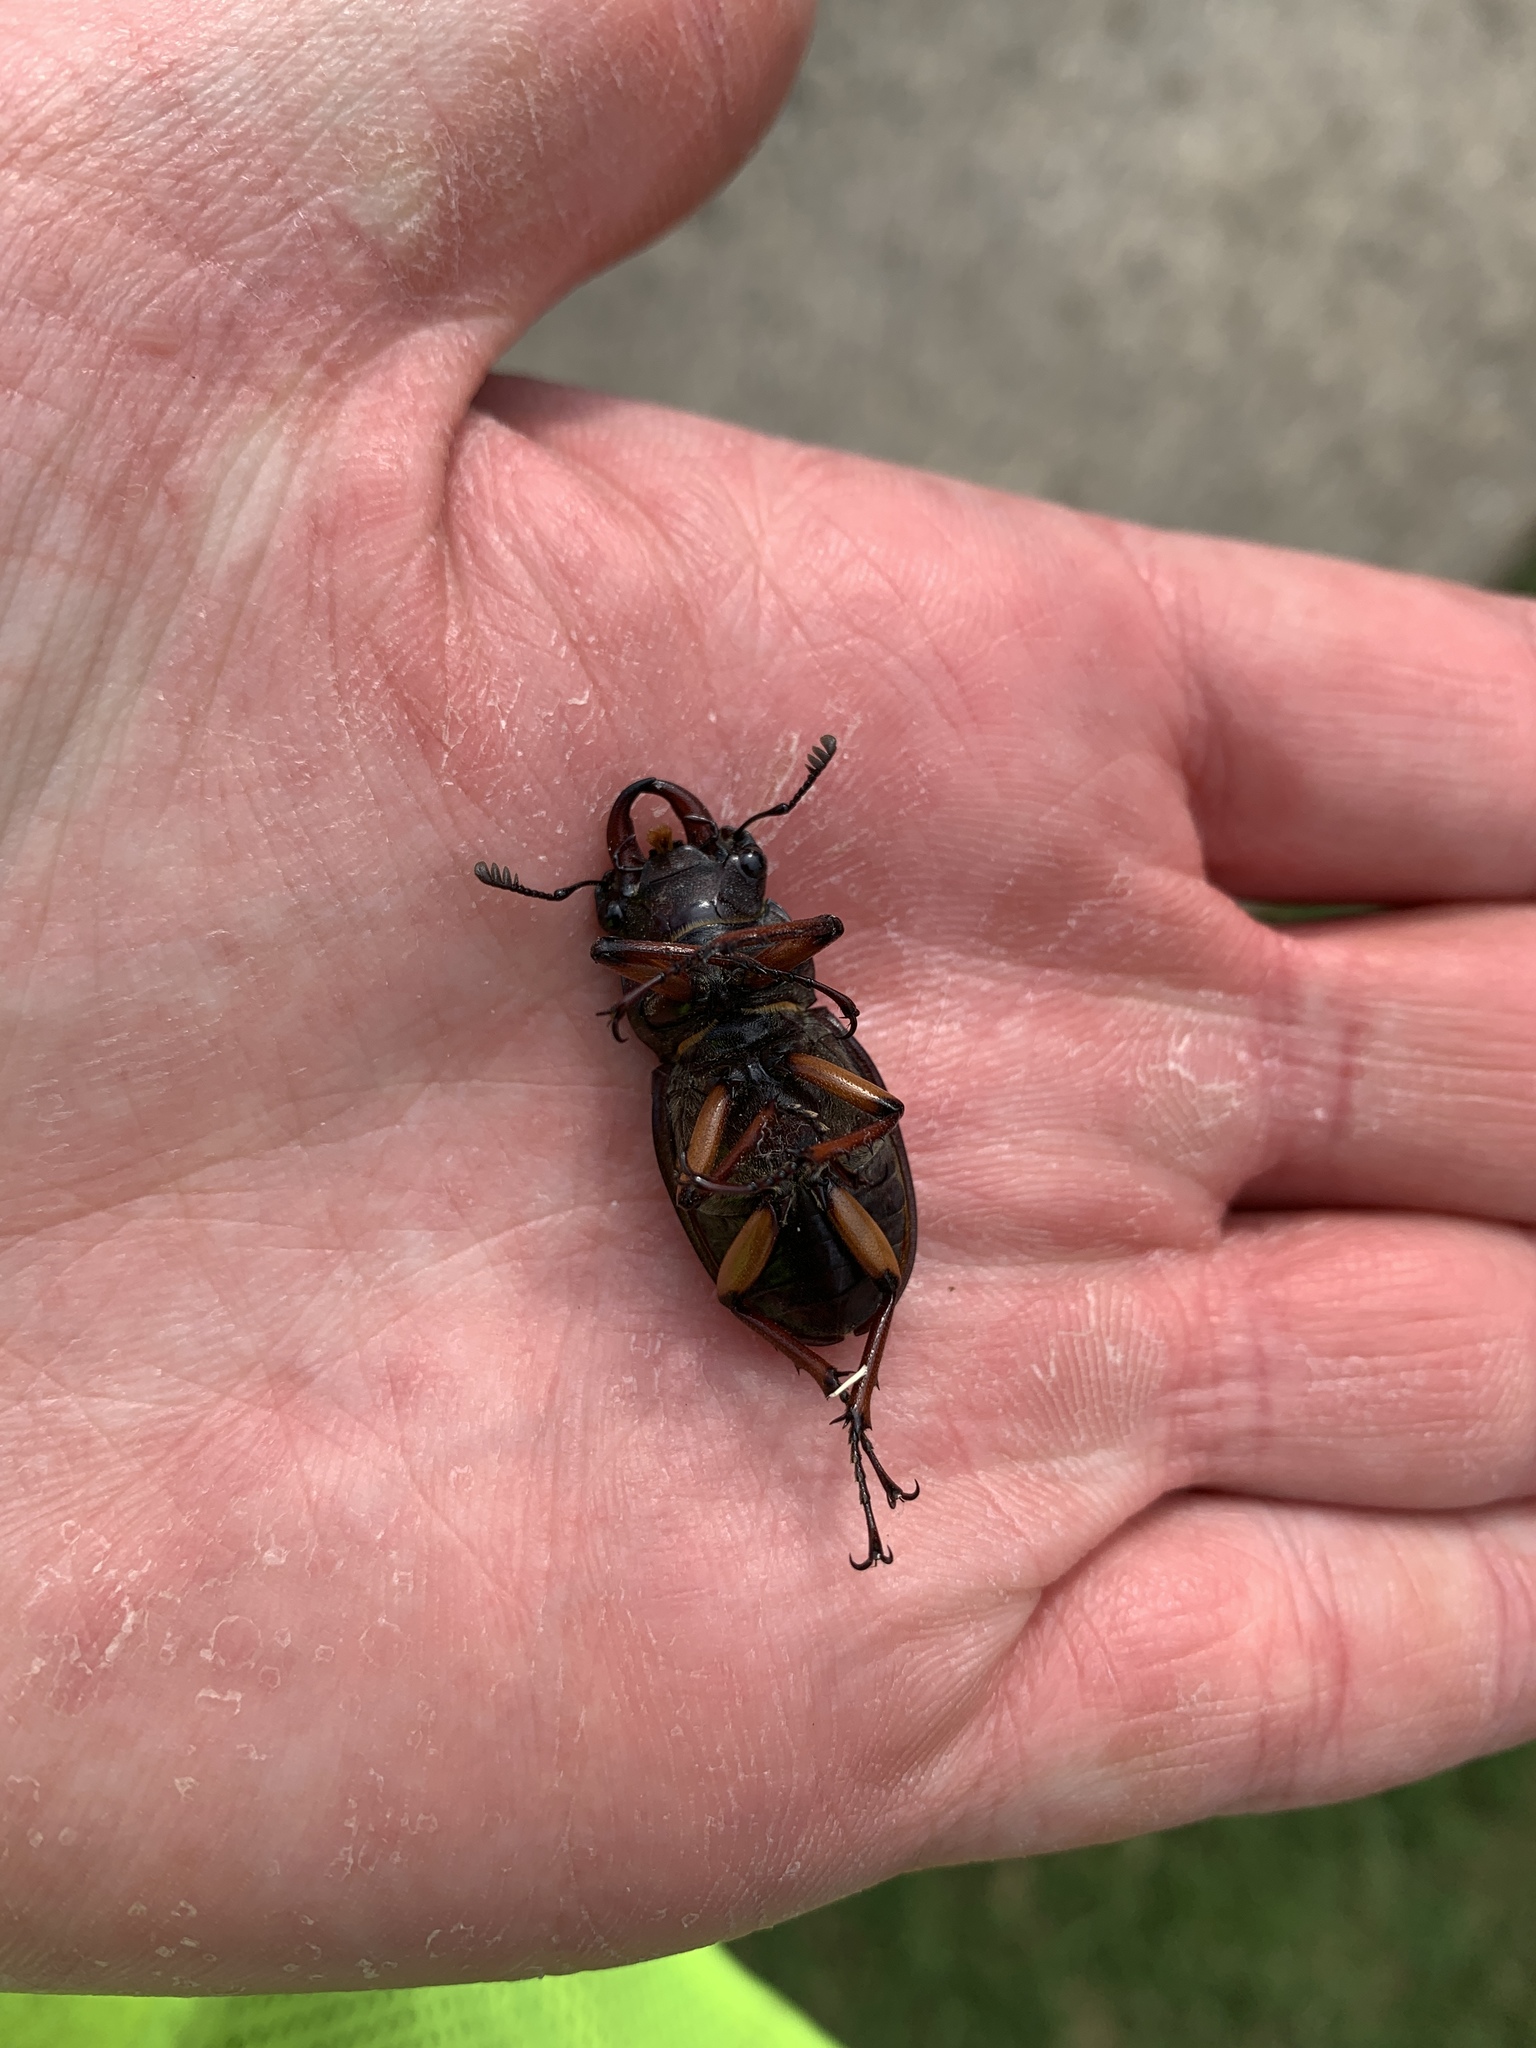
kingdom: Animalia
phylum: Arthropoda
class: Insecta
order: Coleoptera
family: Lucanidae
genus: Lucanus
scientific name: Lucanus capreolus
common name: Stag beetle
